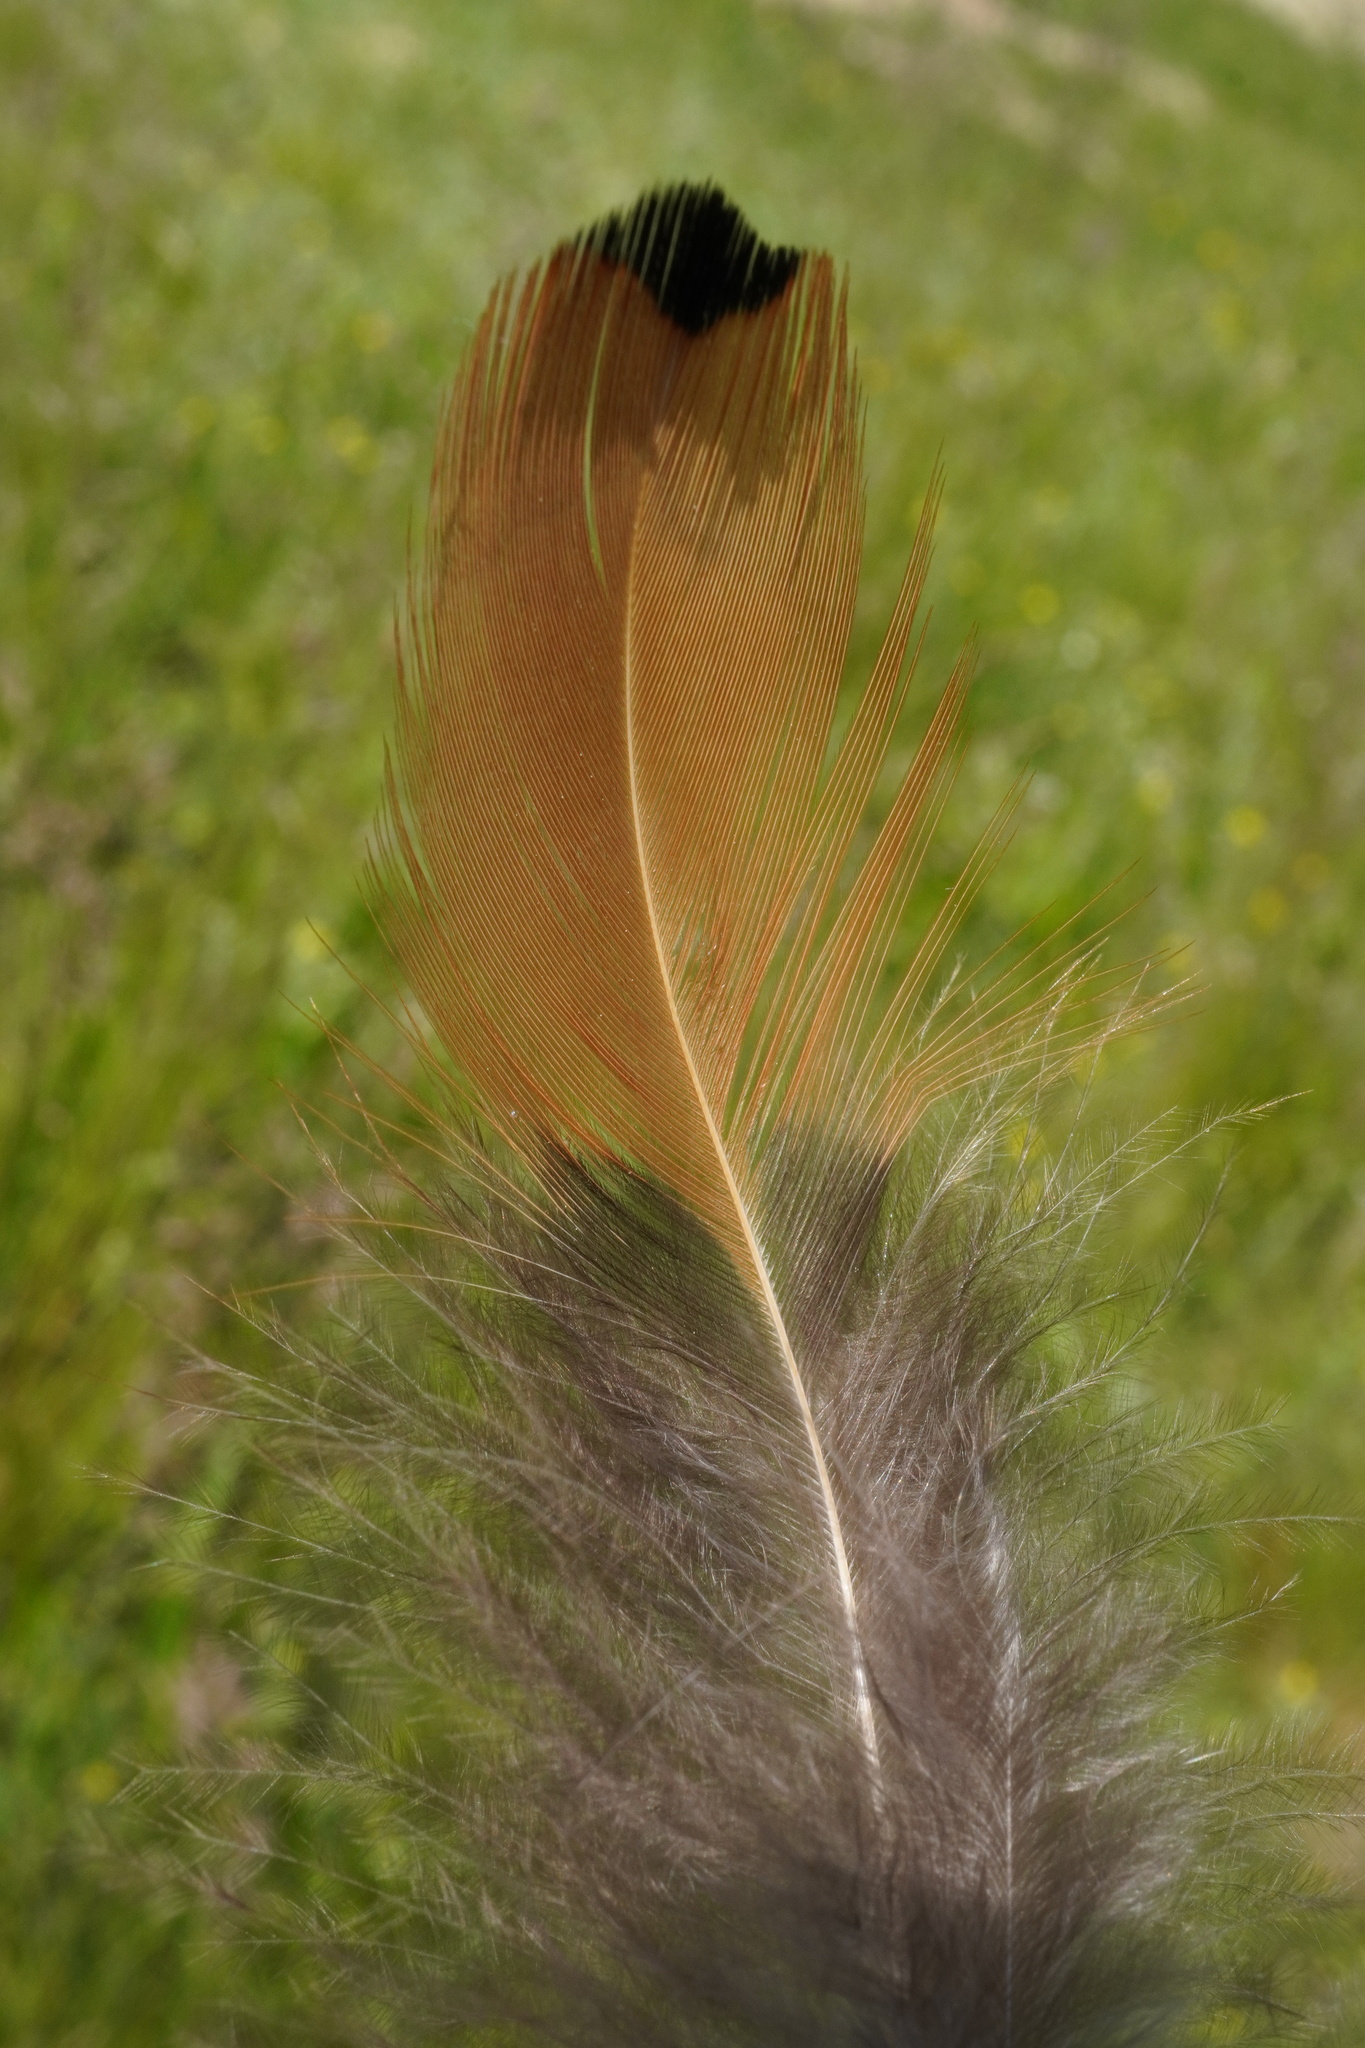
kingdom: Animalia
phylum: Chordata
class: Aves
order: Galliformes
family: Phasianidae
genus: Phasianus
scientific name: Phasianus colchicus
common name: Common pheasant
